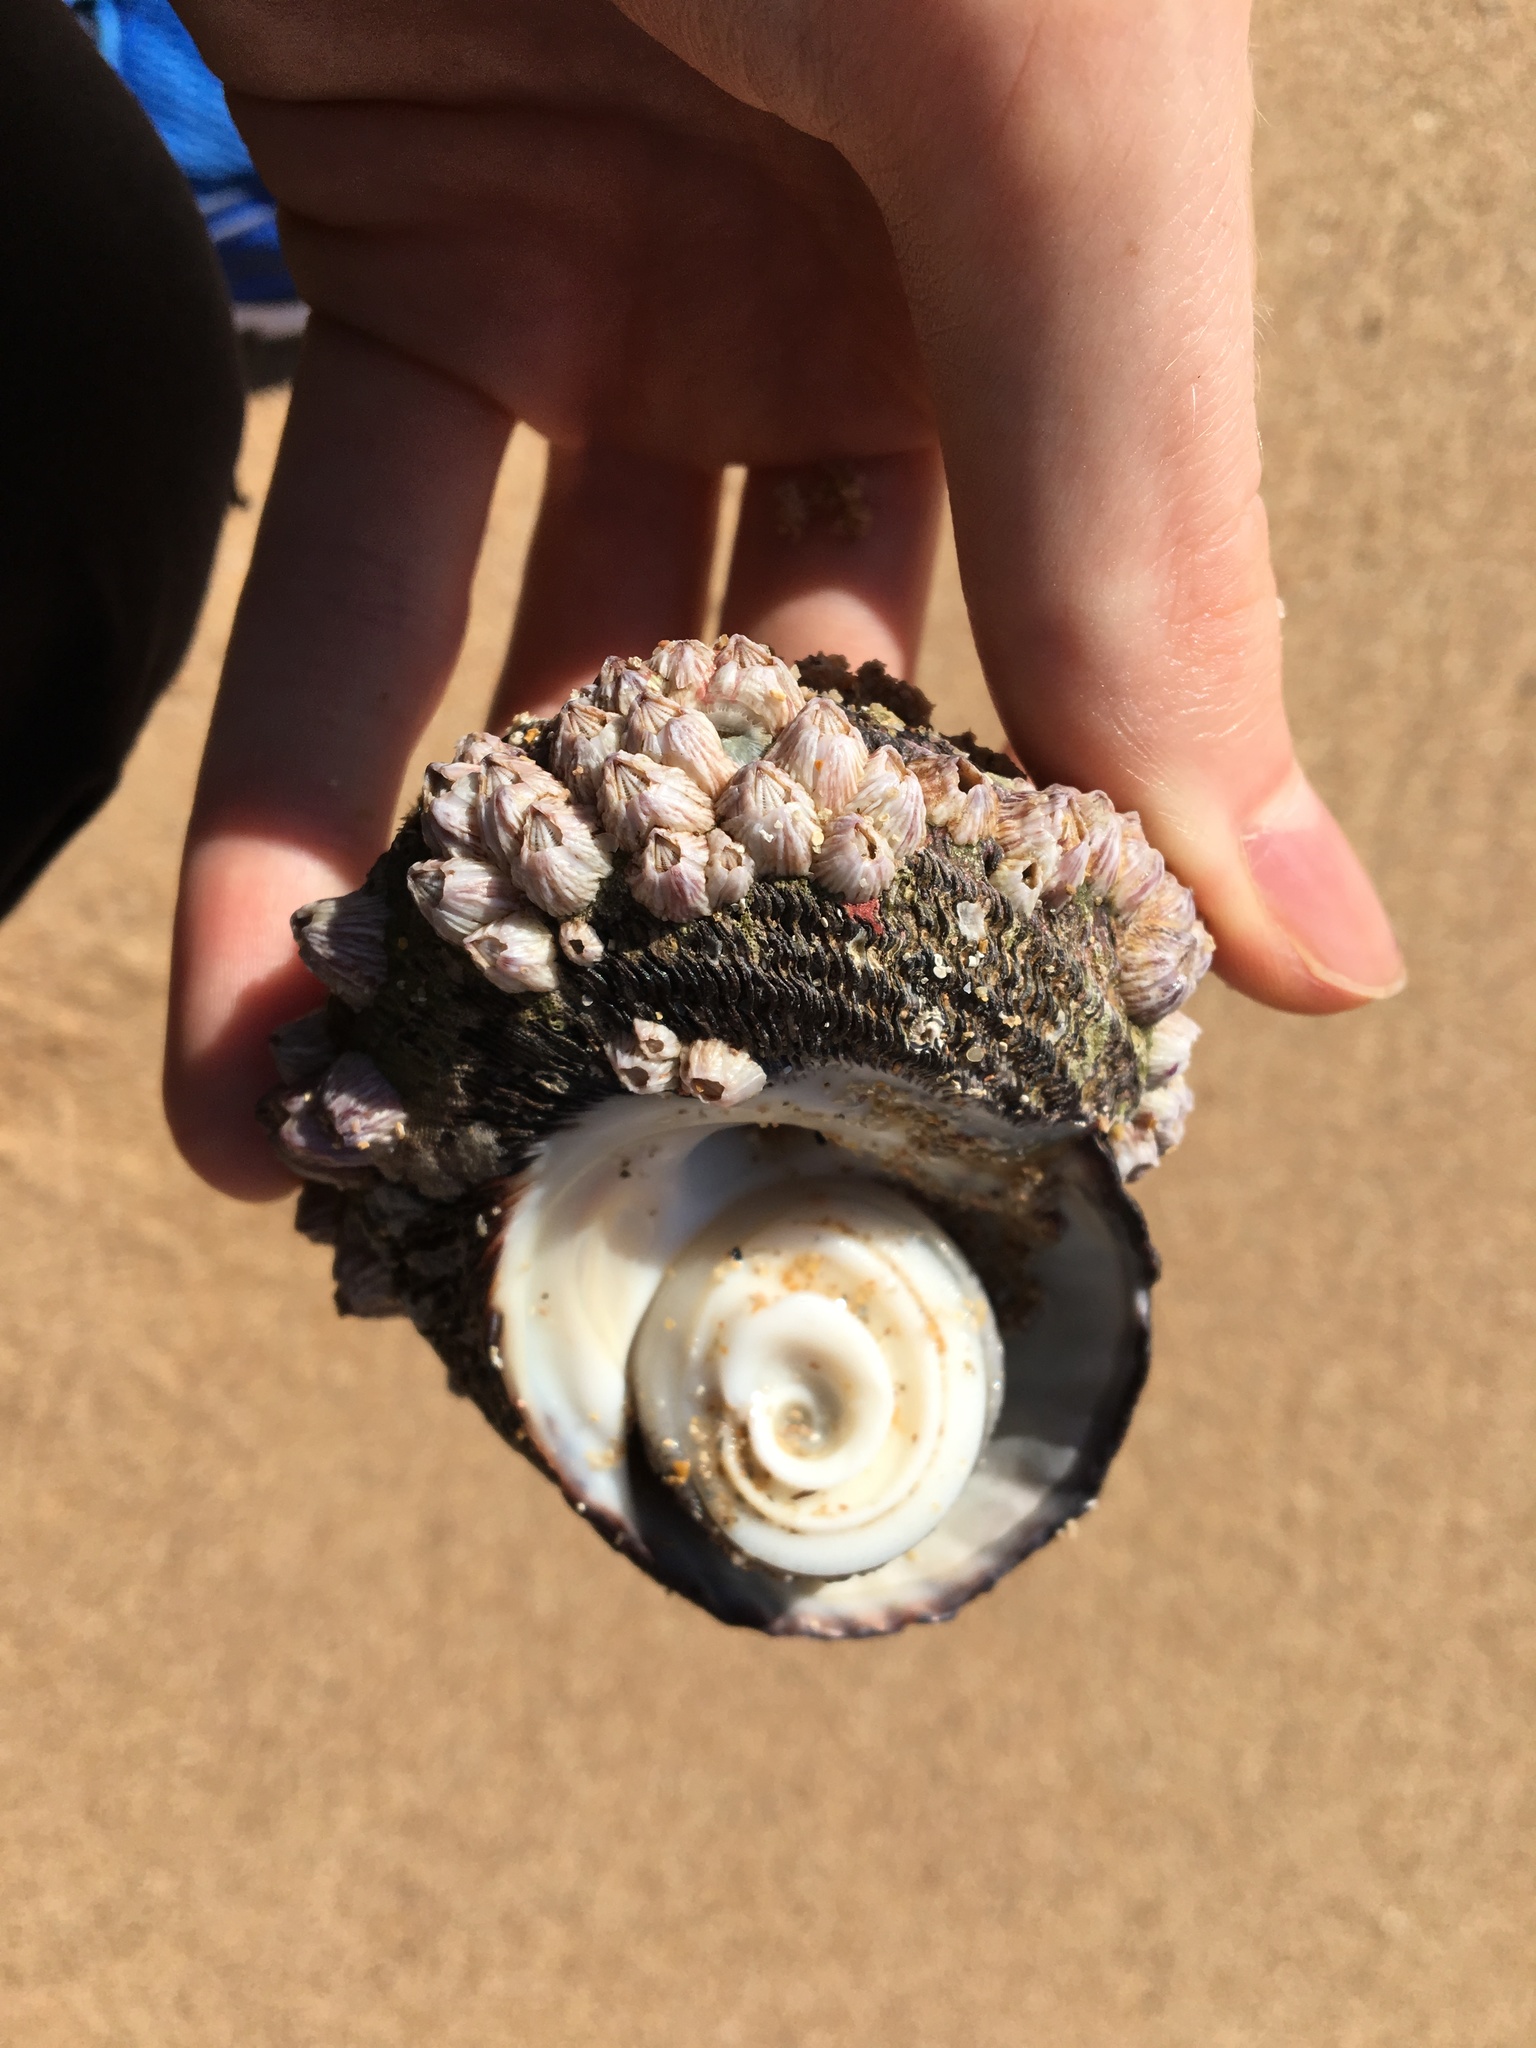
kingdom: Animalia
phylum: Arthropoda
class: Maxillopoda
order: Sessilia
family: Balanidae
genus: Balanus
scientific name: Balanus trigonus
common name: Triangle barnacle
